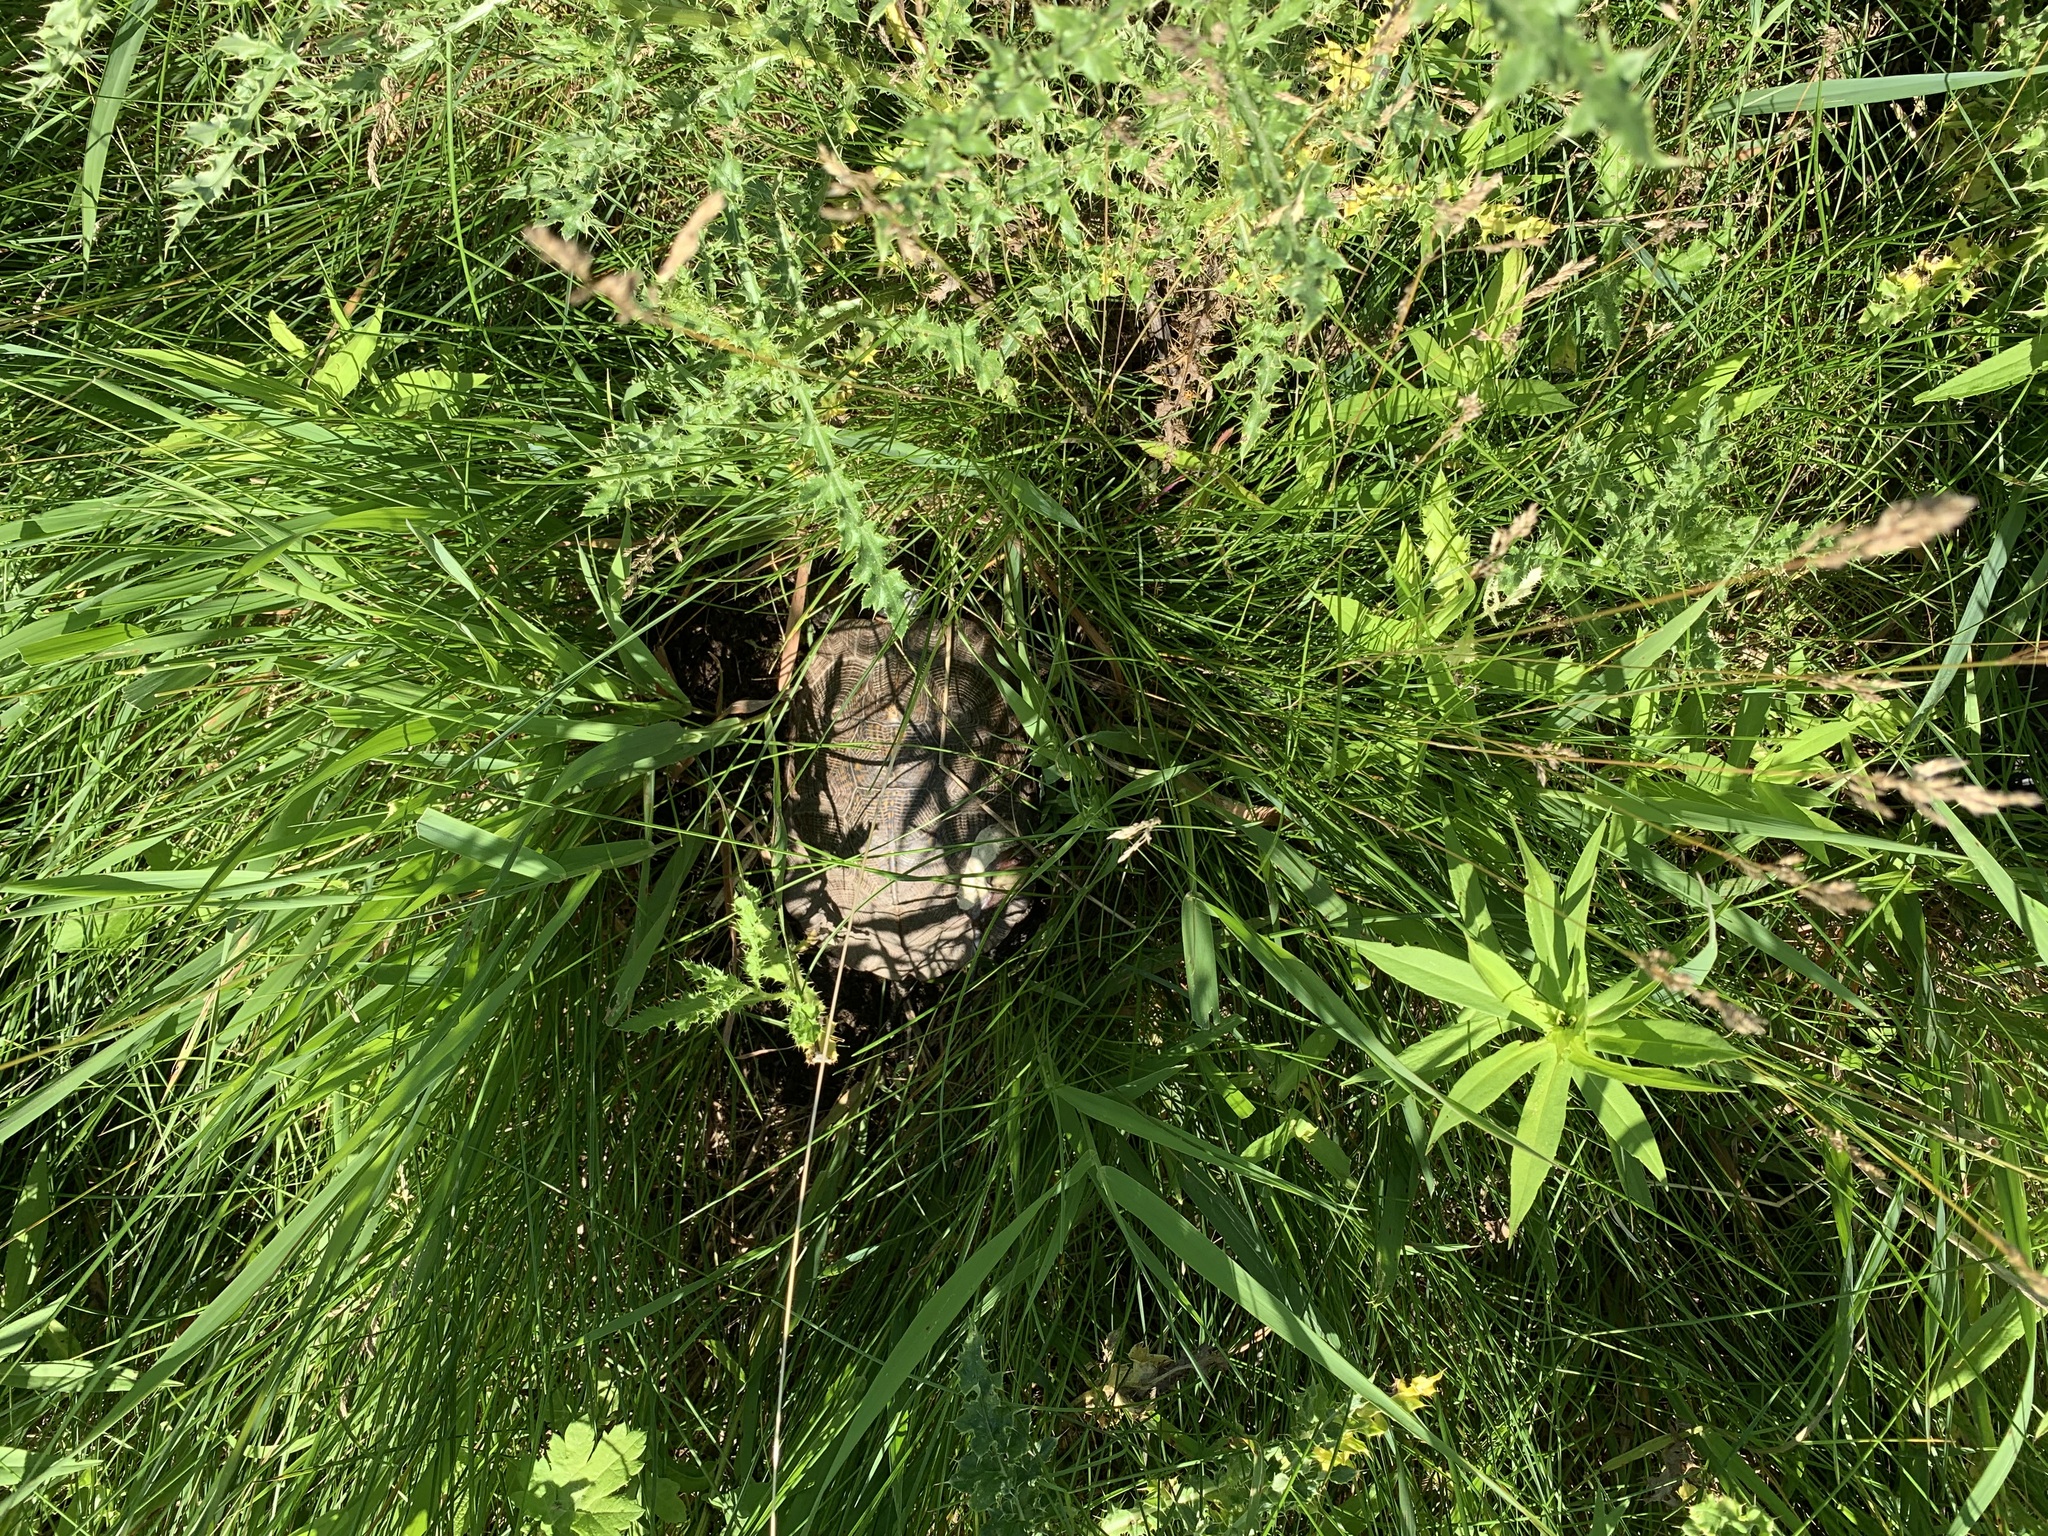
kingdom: Animalia
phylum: Chordata
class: Testudines
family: Emydidae
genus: Glyptemys
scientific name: Glyptemys insculpta
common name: Wood turtle
